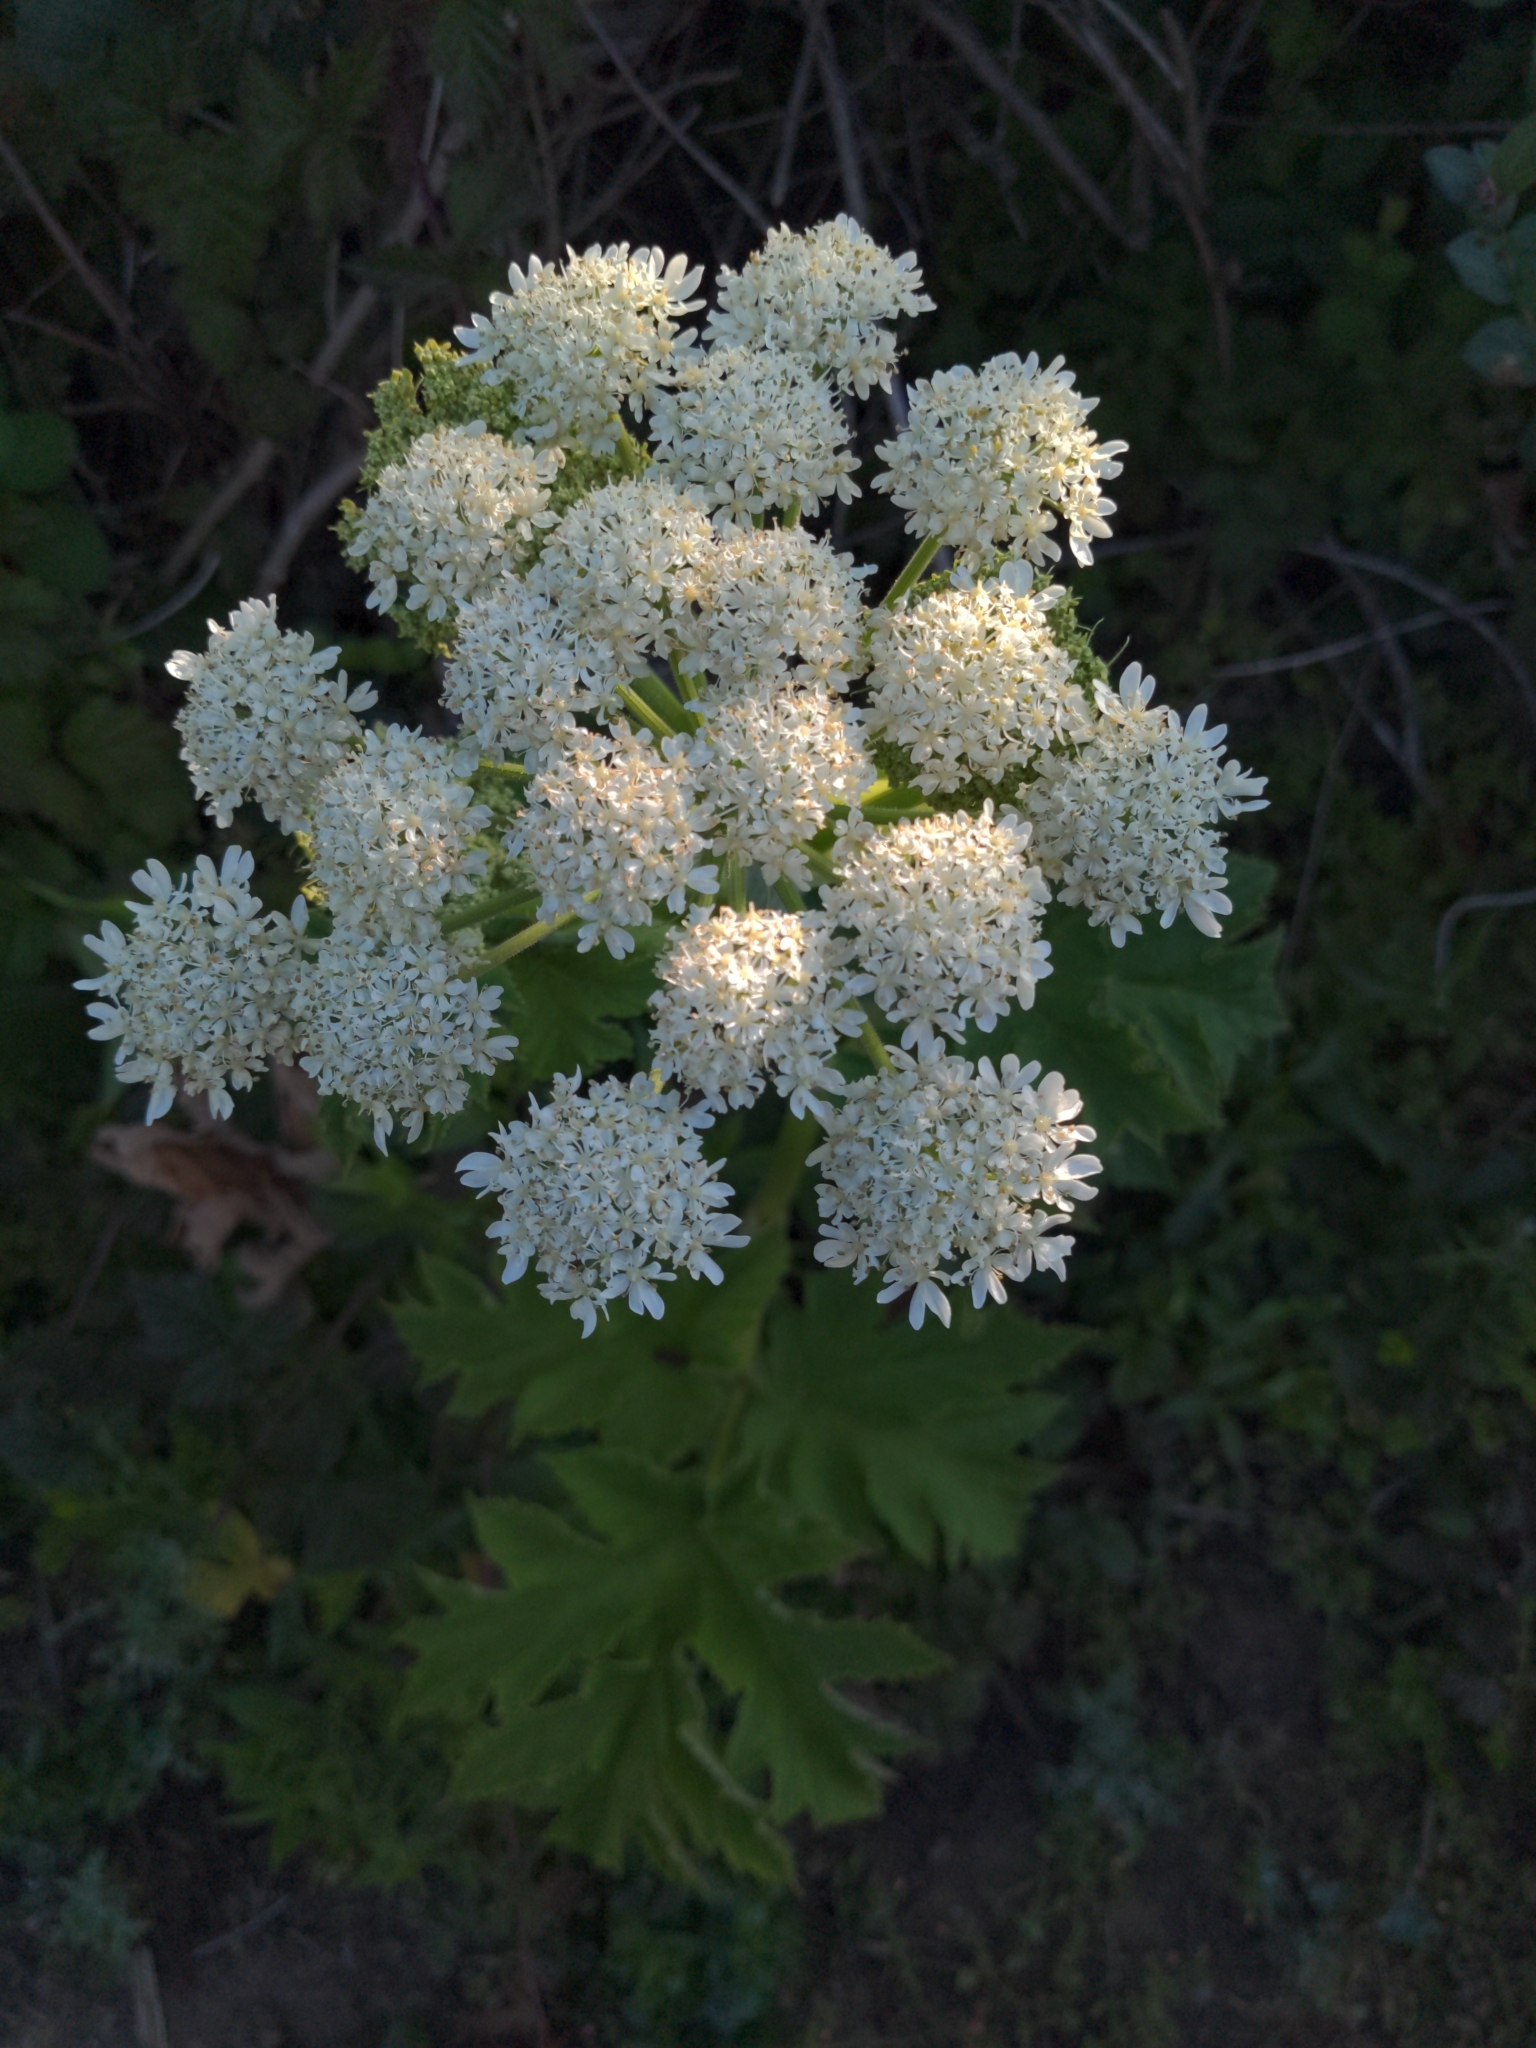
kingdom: Plantae
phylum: Tracheophyta
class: Magnoliopsida
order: Apiales
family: Apiaceae
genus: Heracleum
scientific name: Heracleum maximum
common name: American cow parsnip
